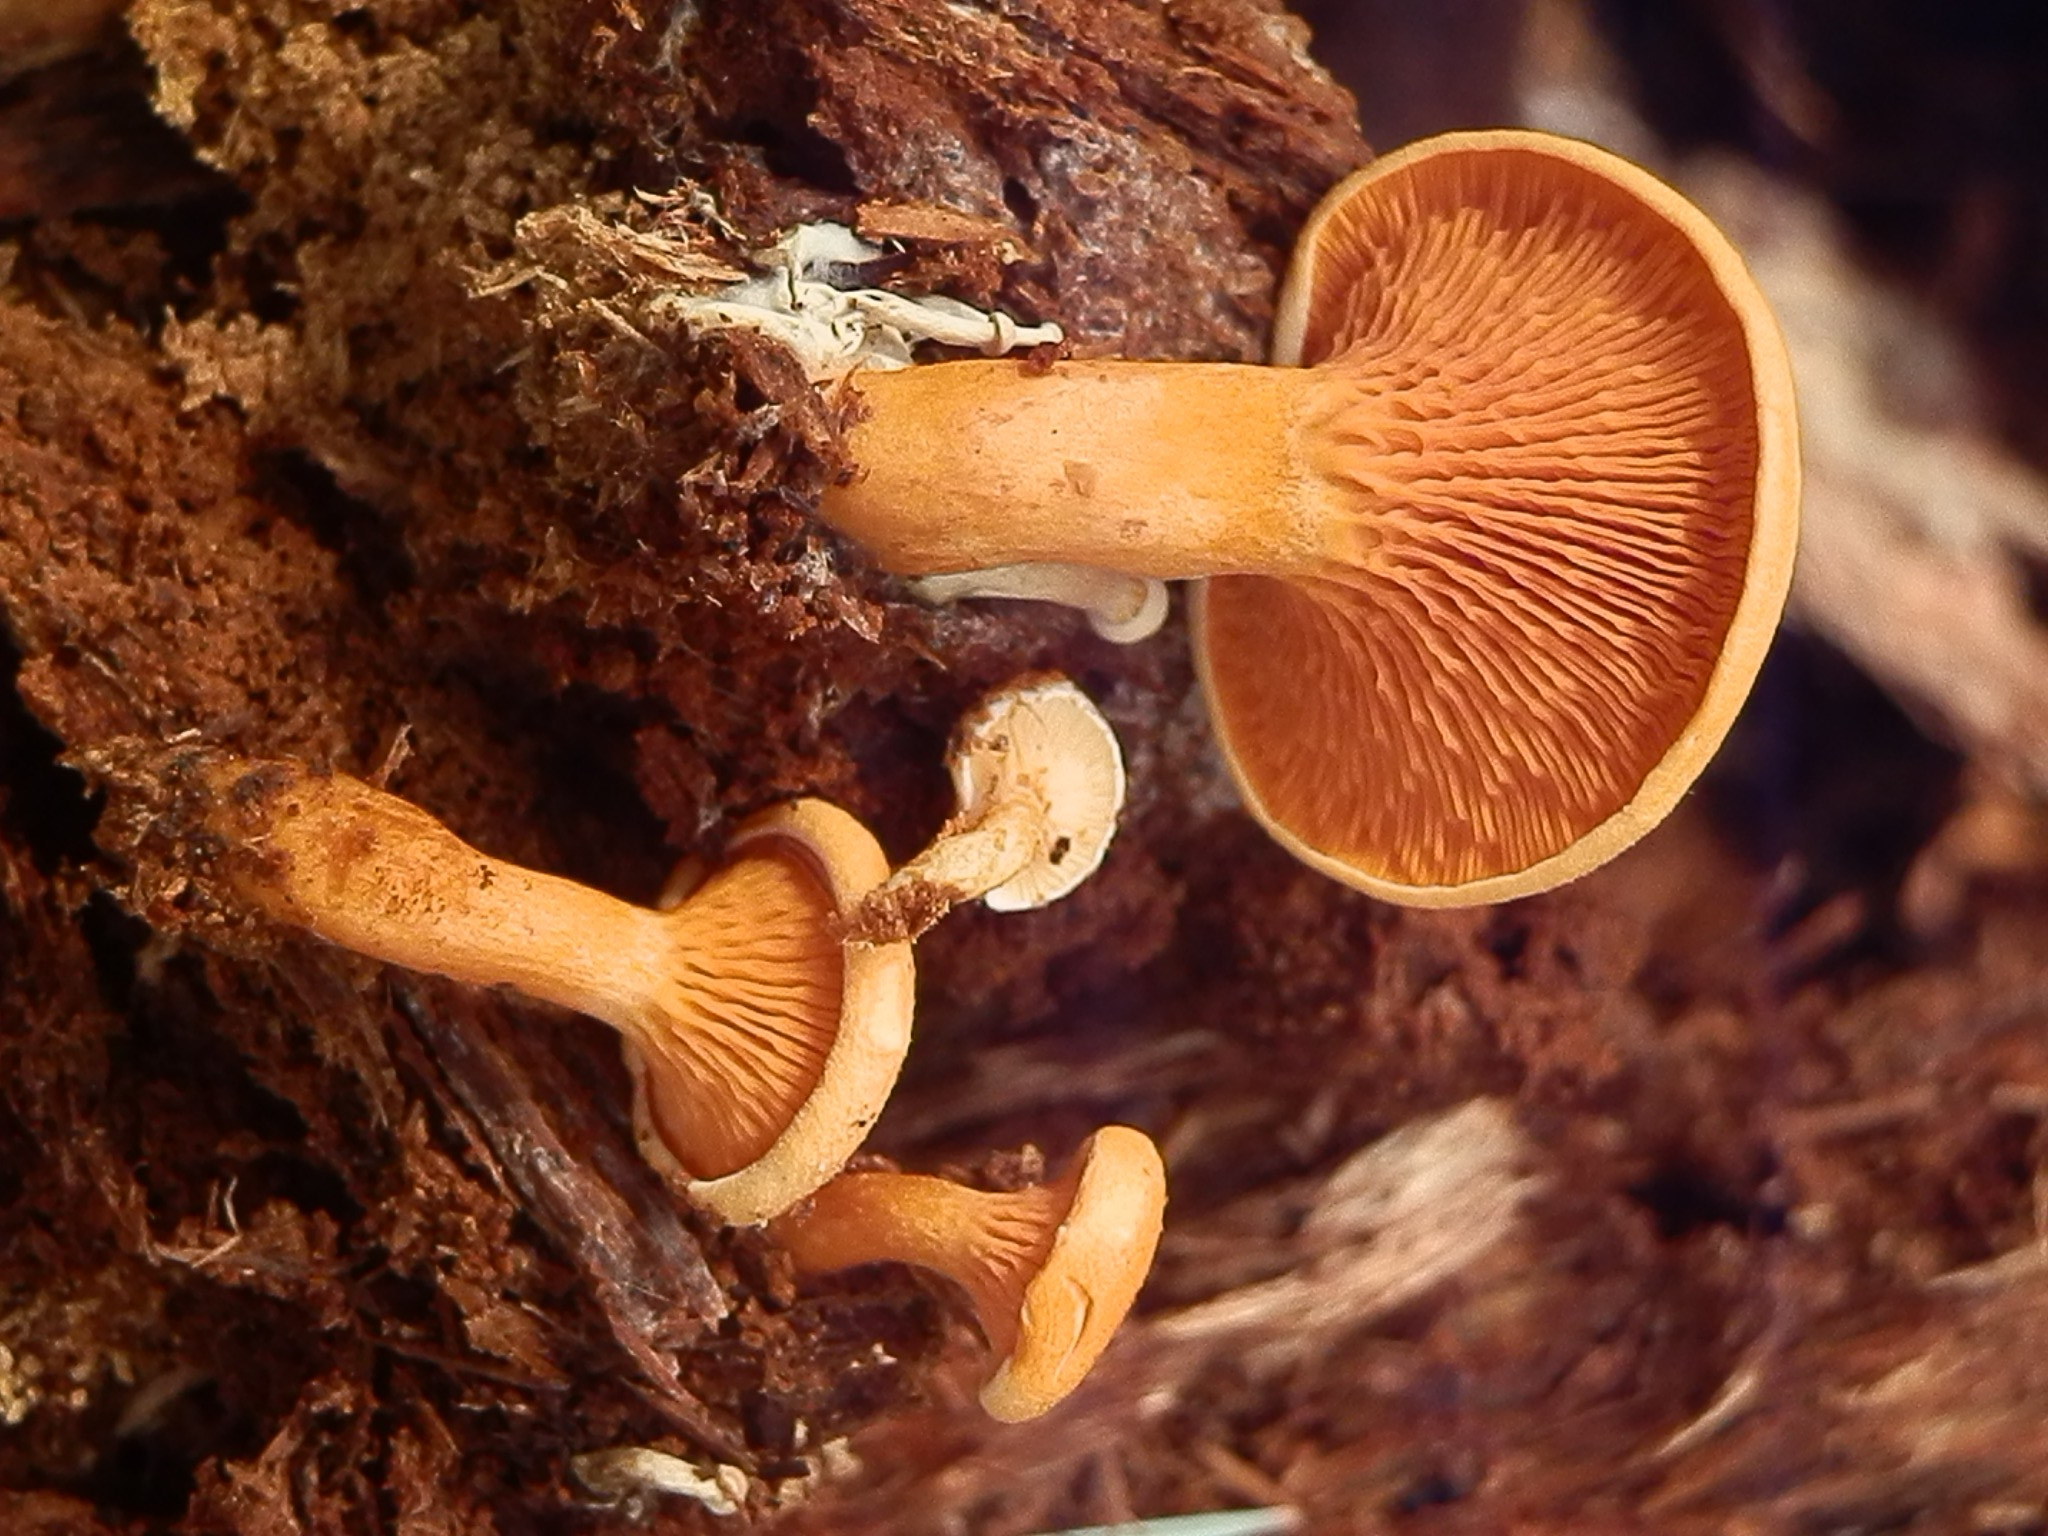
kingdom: Fungi
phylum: Basidiomycota
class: Agaricomycetes
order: Boletales
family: Hygrophoropsidaceae
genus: Hygrophoropsis
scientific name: Hygrophoropsis aurantiaca
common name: False chanterelle
